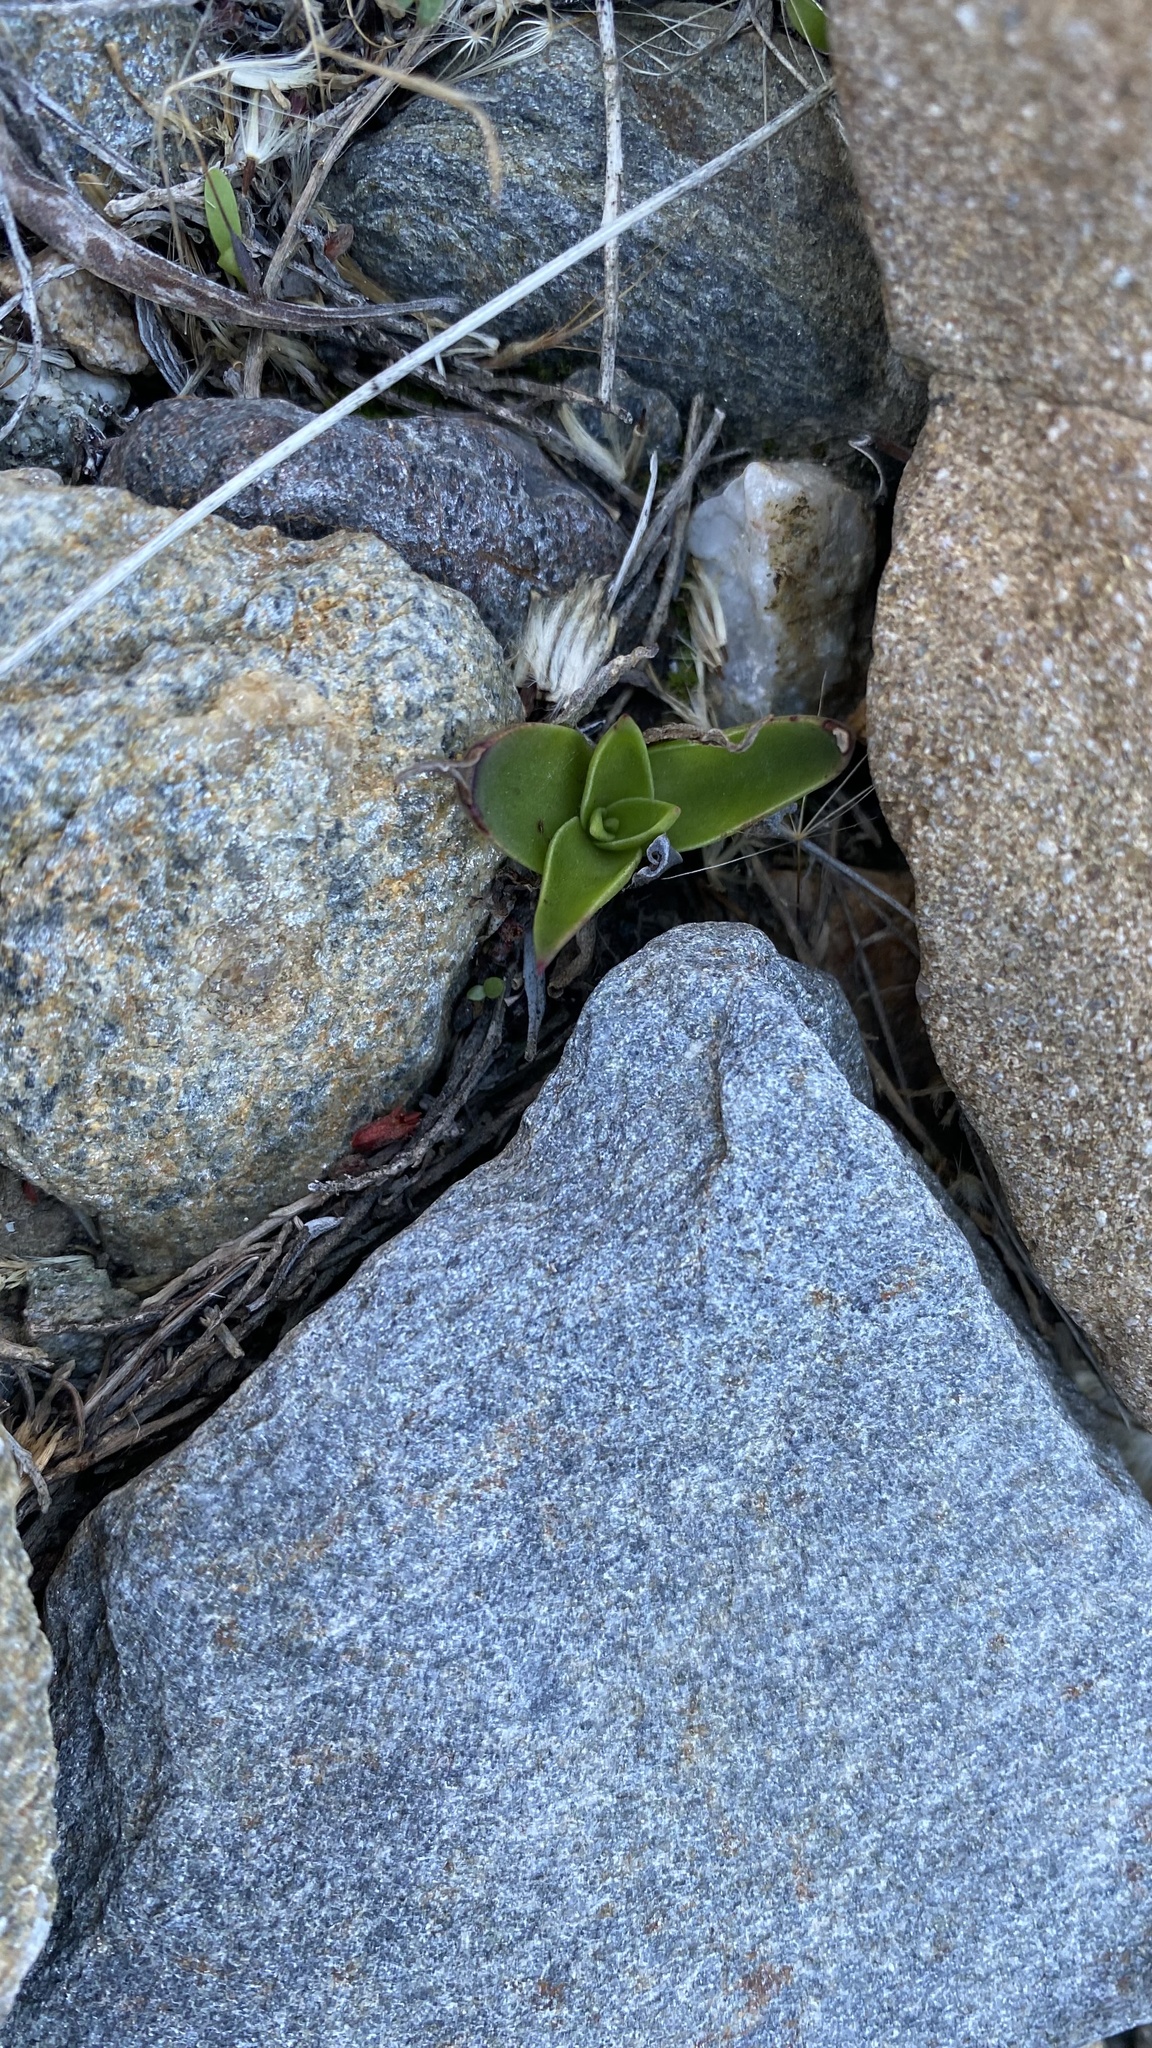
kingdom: Plantae
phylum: Tracheophyta
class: Magnoliopsida
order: Saxifragales
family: Crassulaceae
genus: Dudleya
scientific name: Dudleya lanceolata
